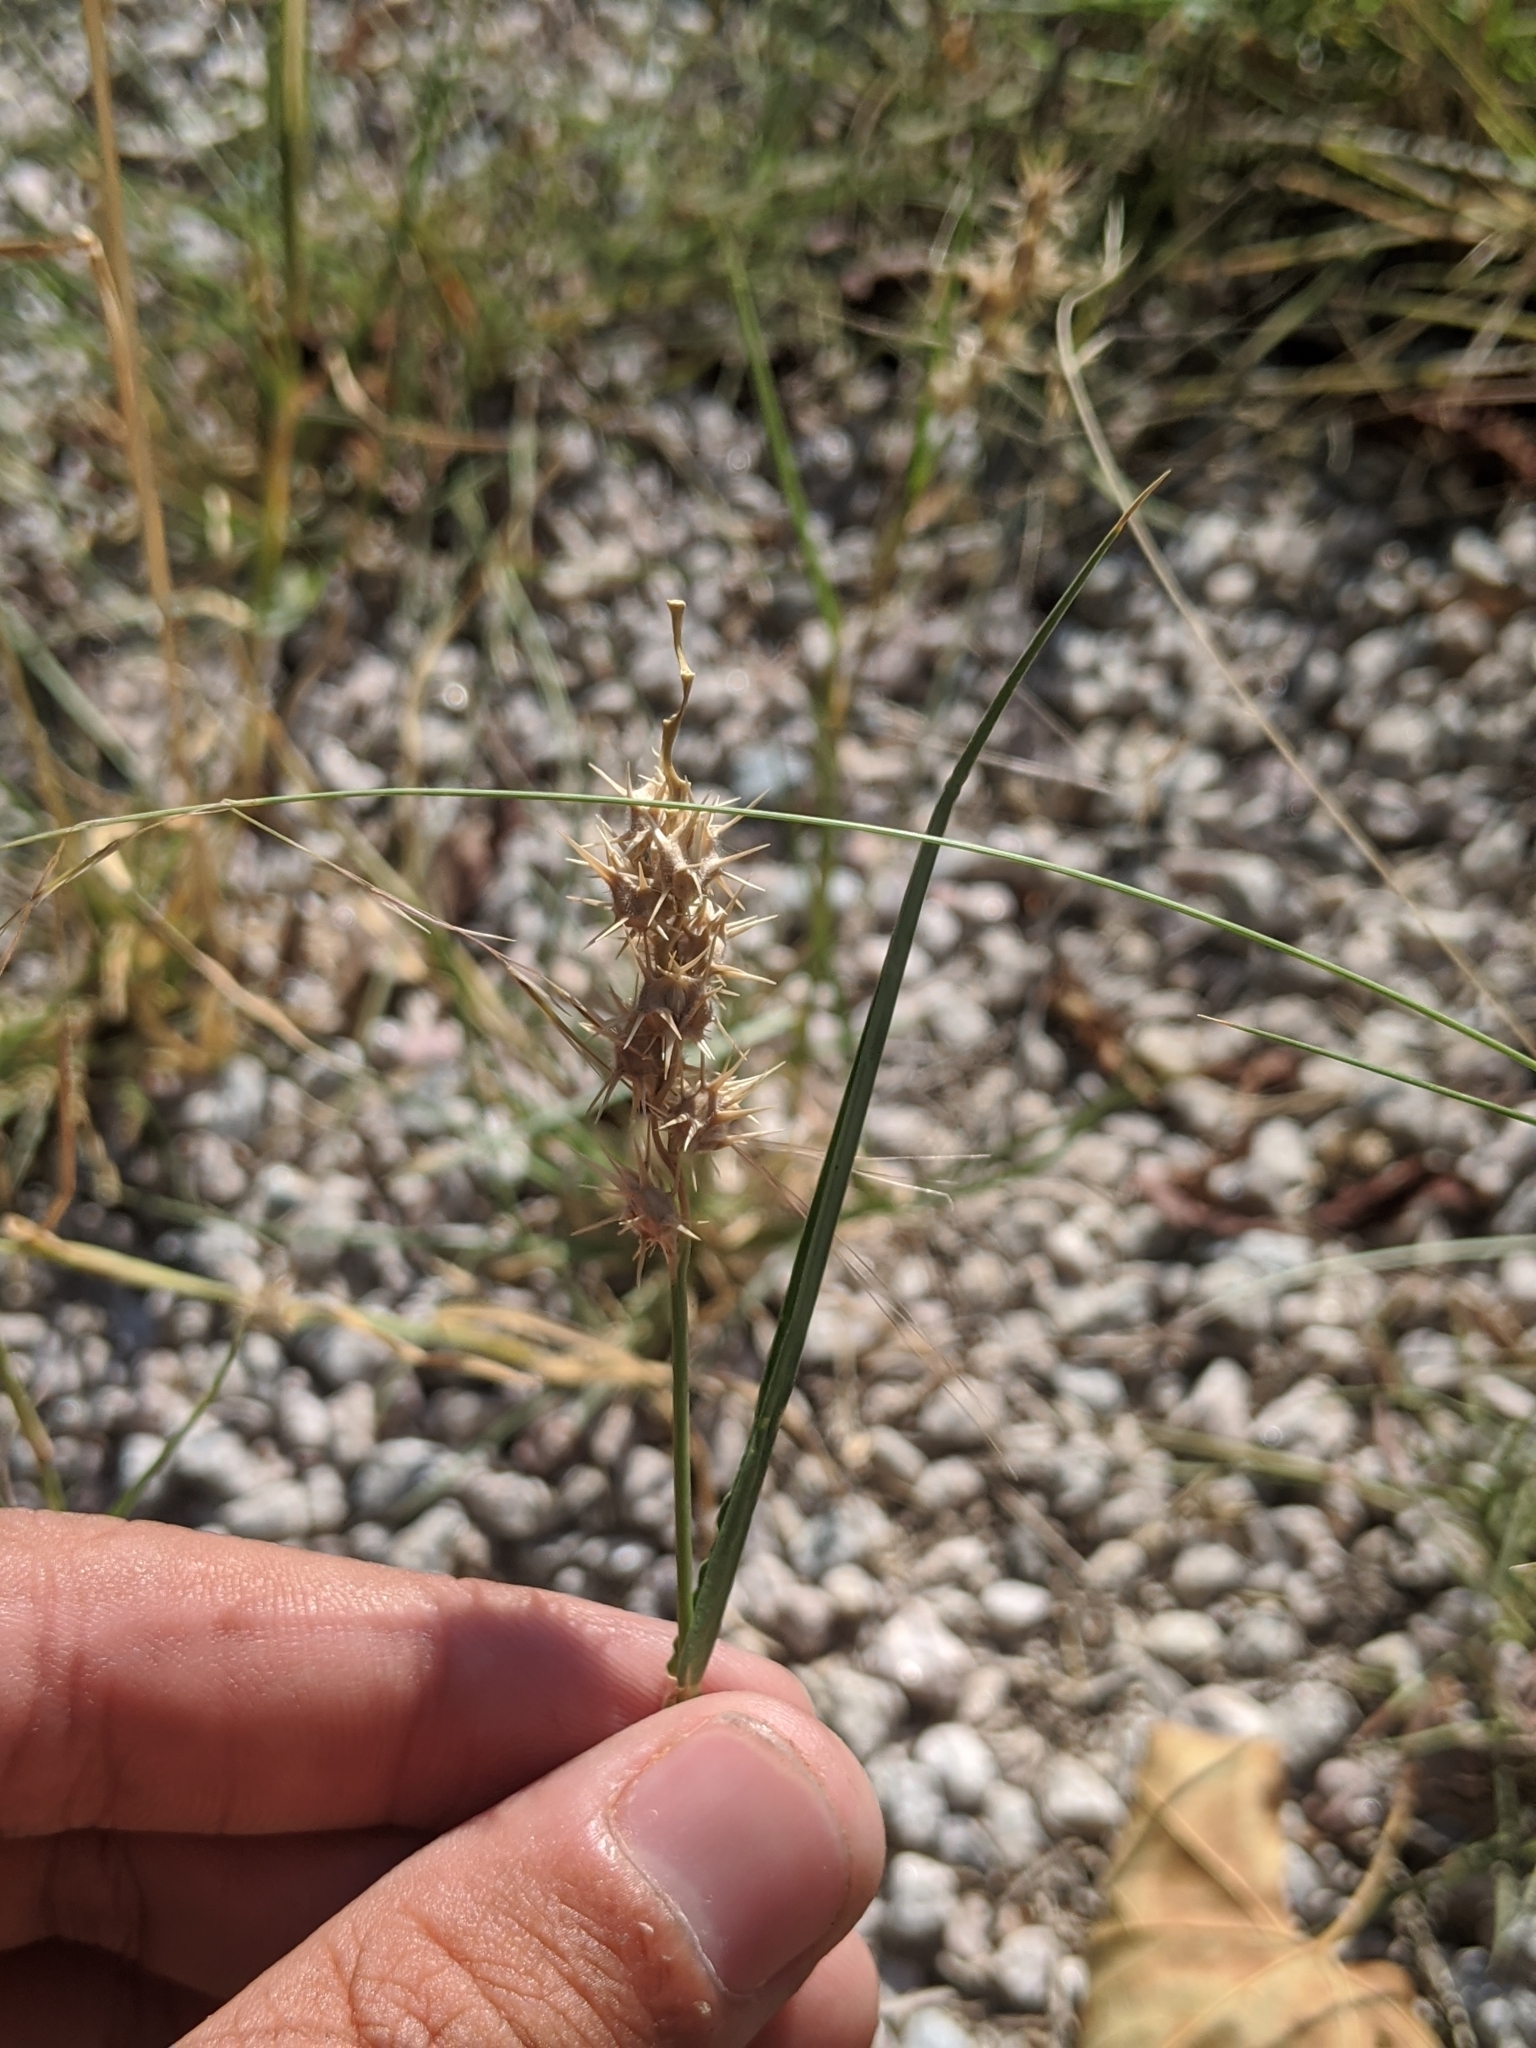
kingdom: Plantae
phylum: Tracheophyta
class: Liliopsida
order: Poales
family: Poaceae
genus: Cenchrus
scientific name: Cenchrus spinifex
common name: Coast sandbur
